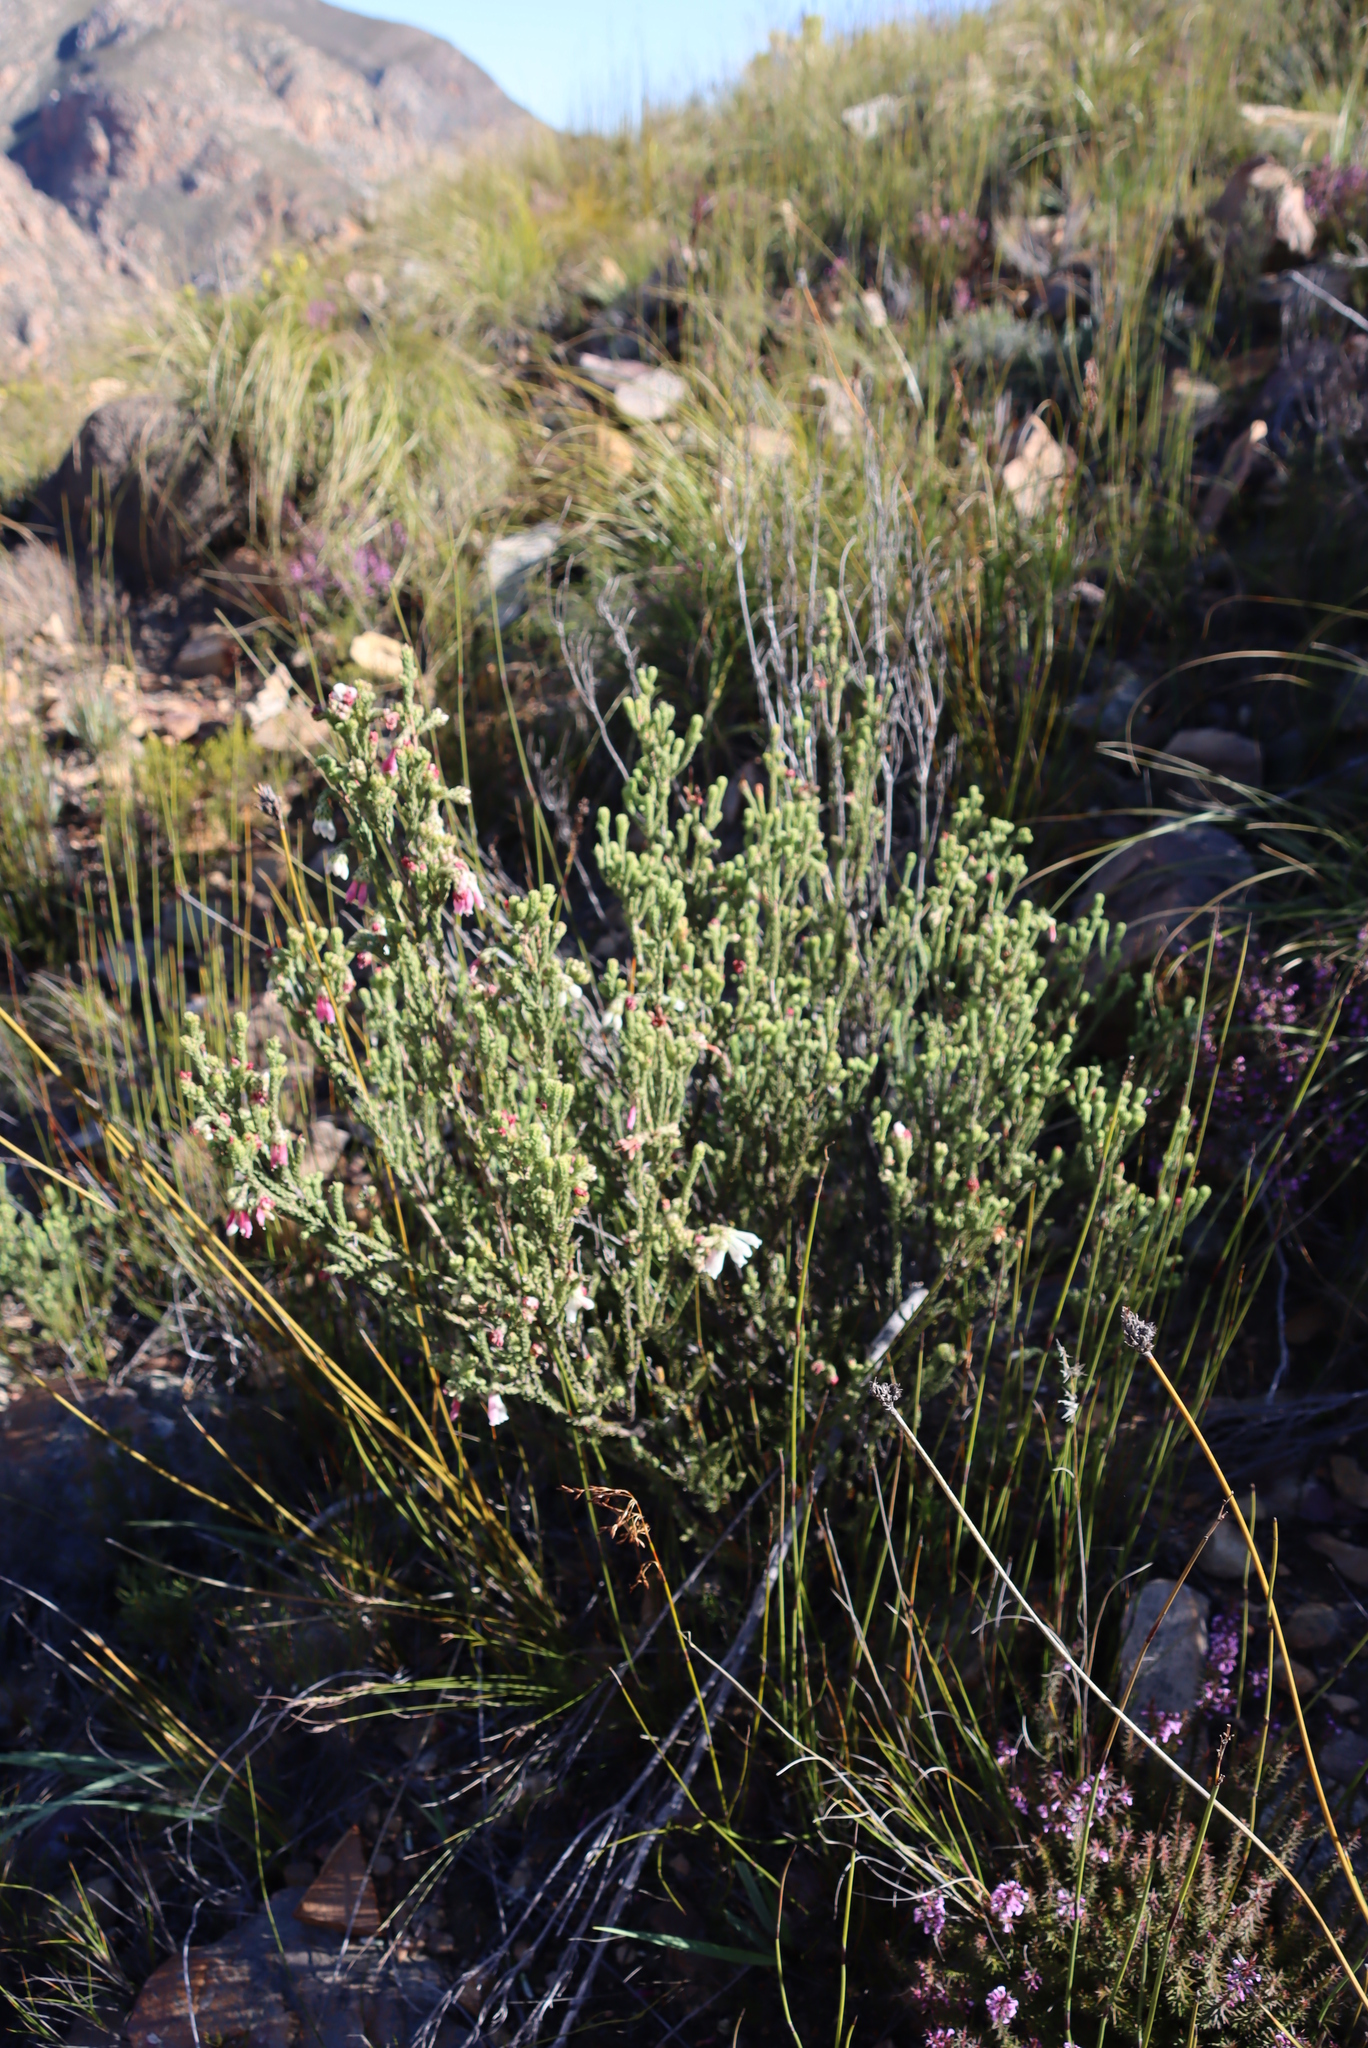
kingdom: Plantae
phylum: Tracheophyta
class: Magnoliopsida
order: Ericales
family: Ericaceae
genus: Erica
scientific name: Erica pectinifolia
